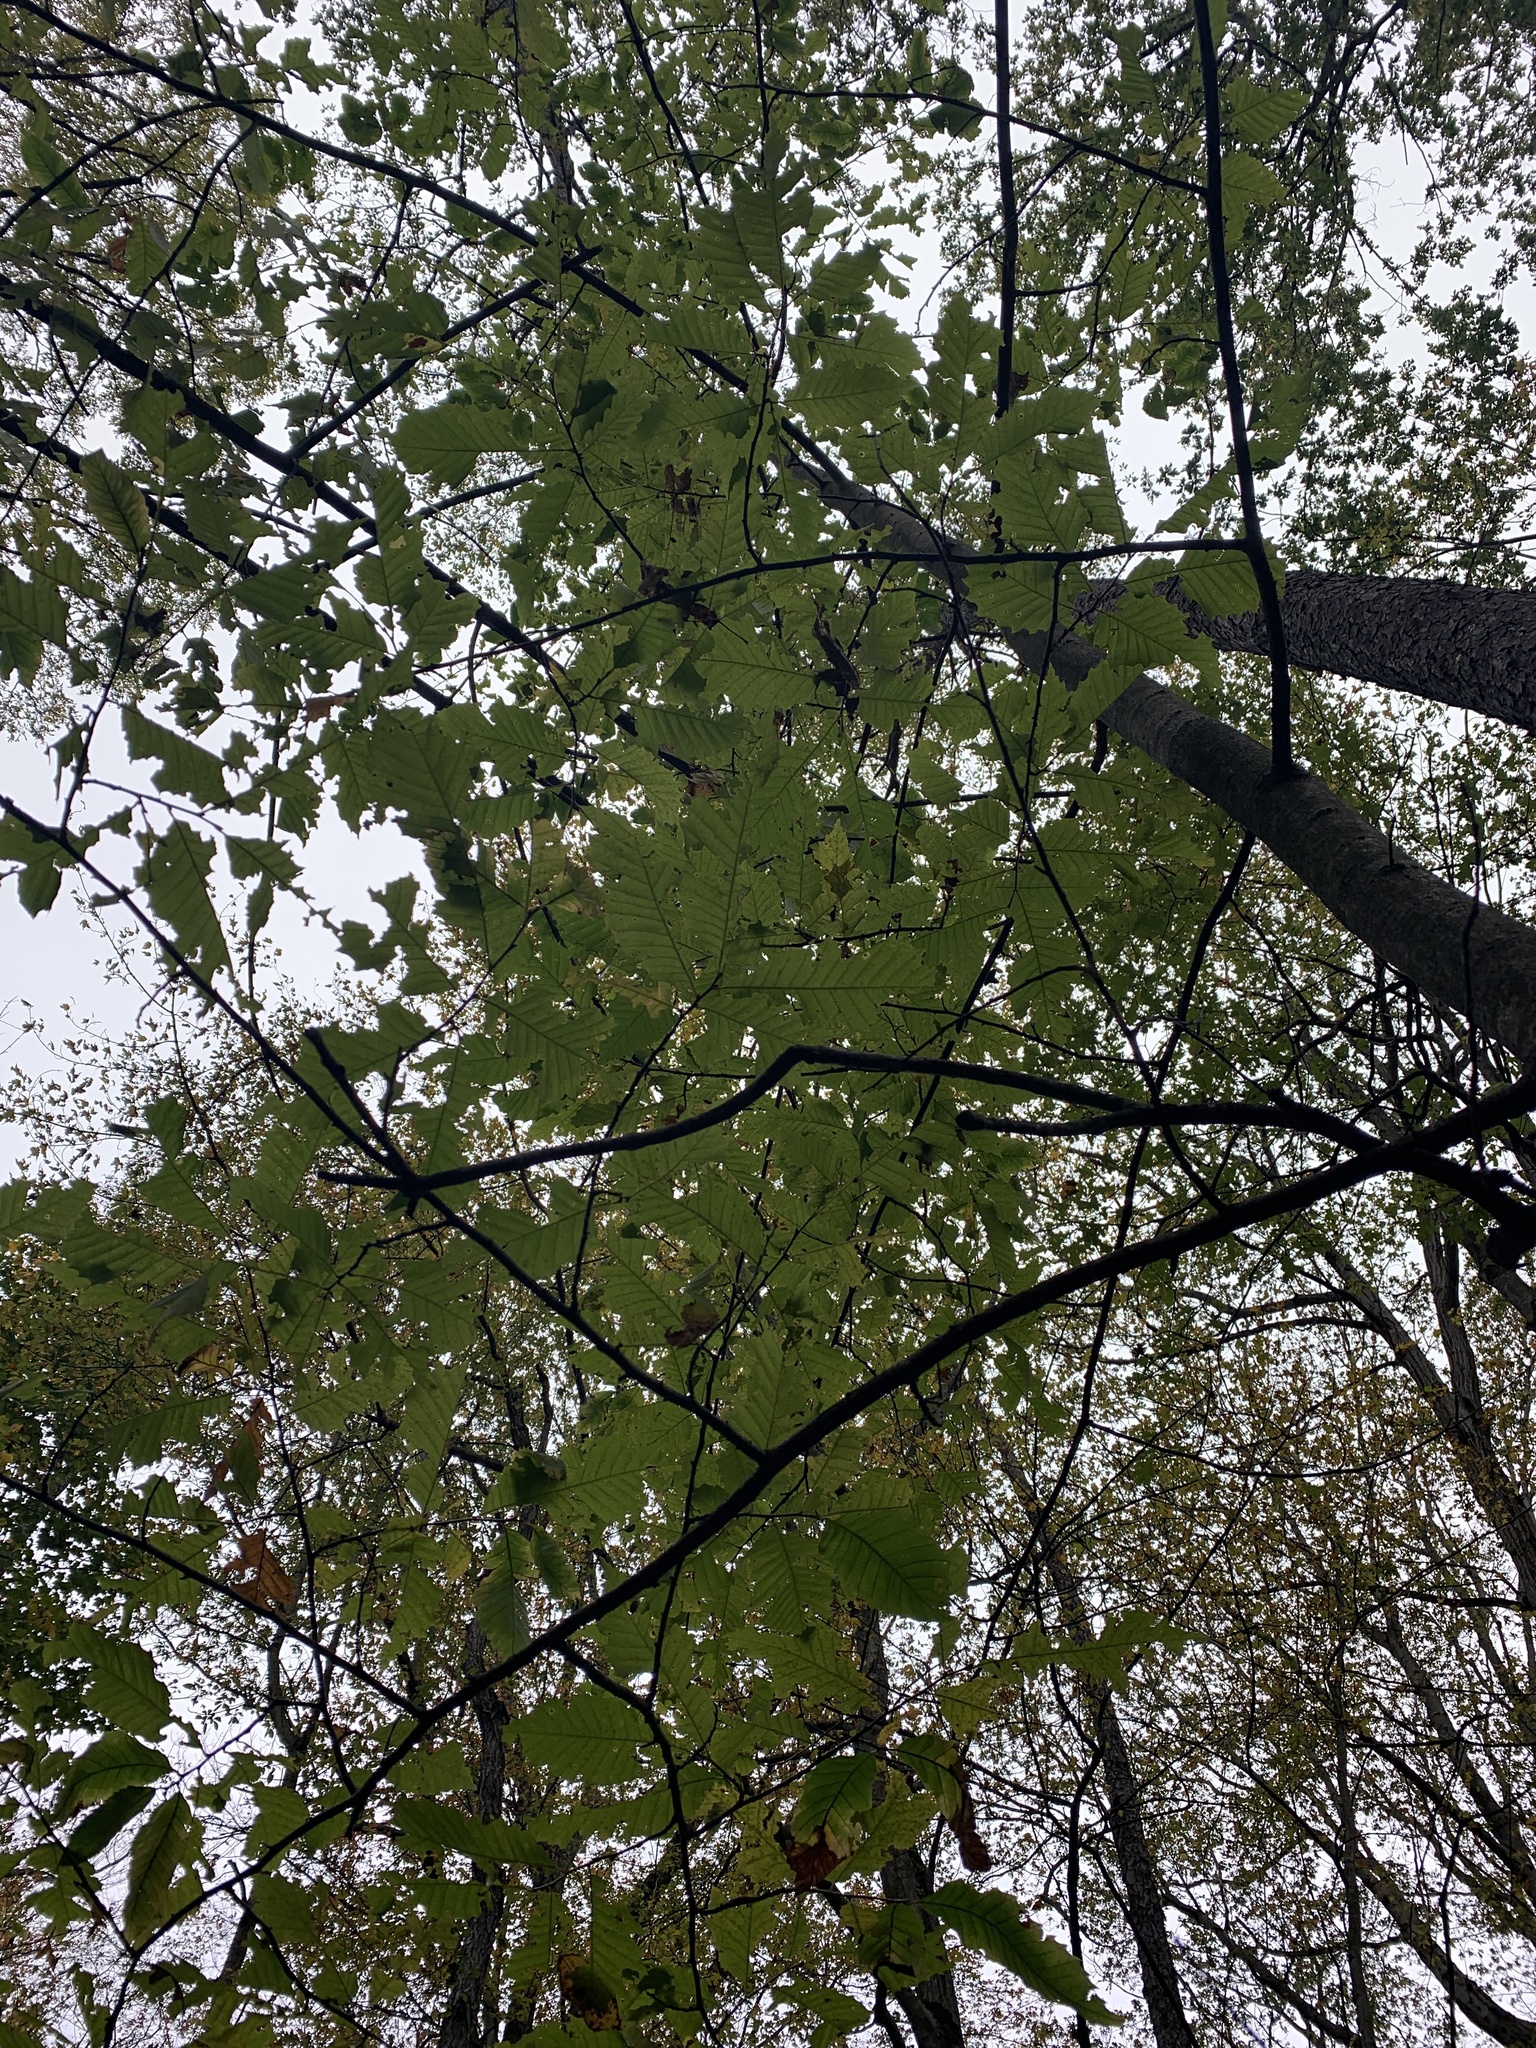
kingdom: Plantae
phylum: Tracheophyta
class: Magnoliopsida
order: Fagales
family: Fagaceae
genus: Castanea
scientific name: Castanea dentata
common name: American chestnut
